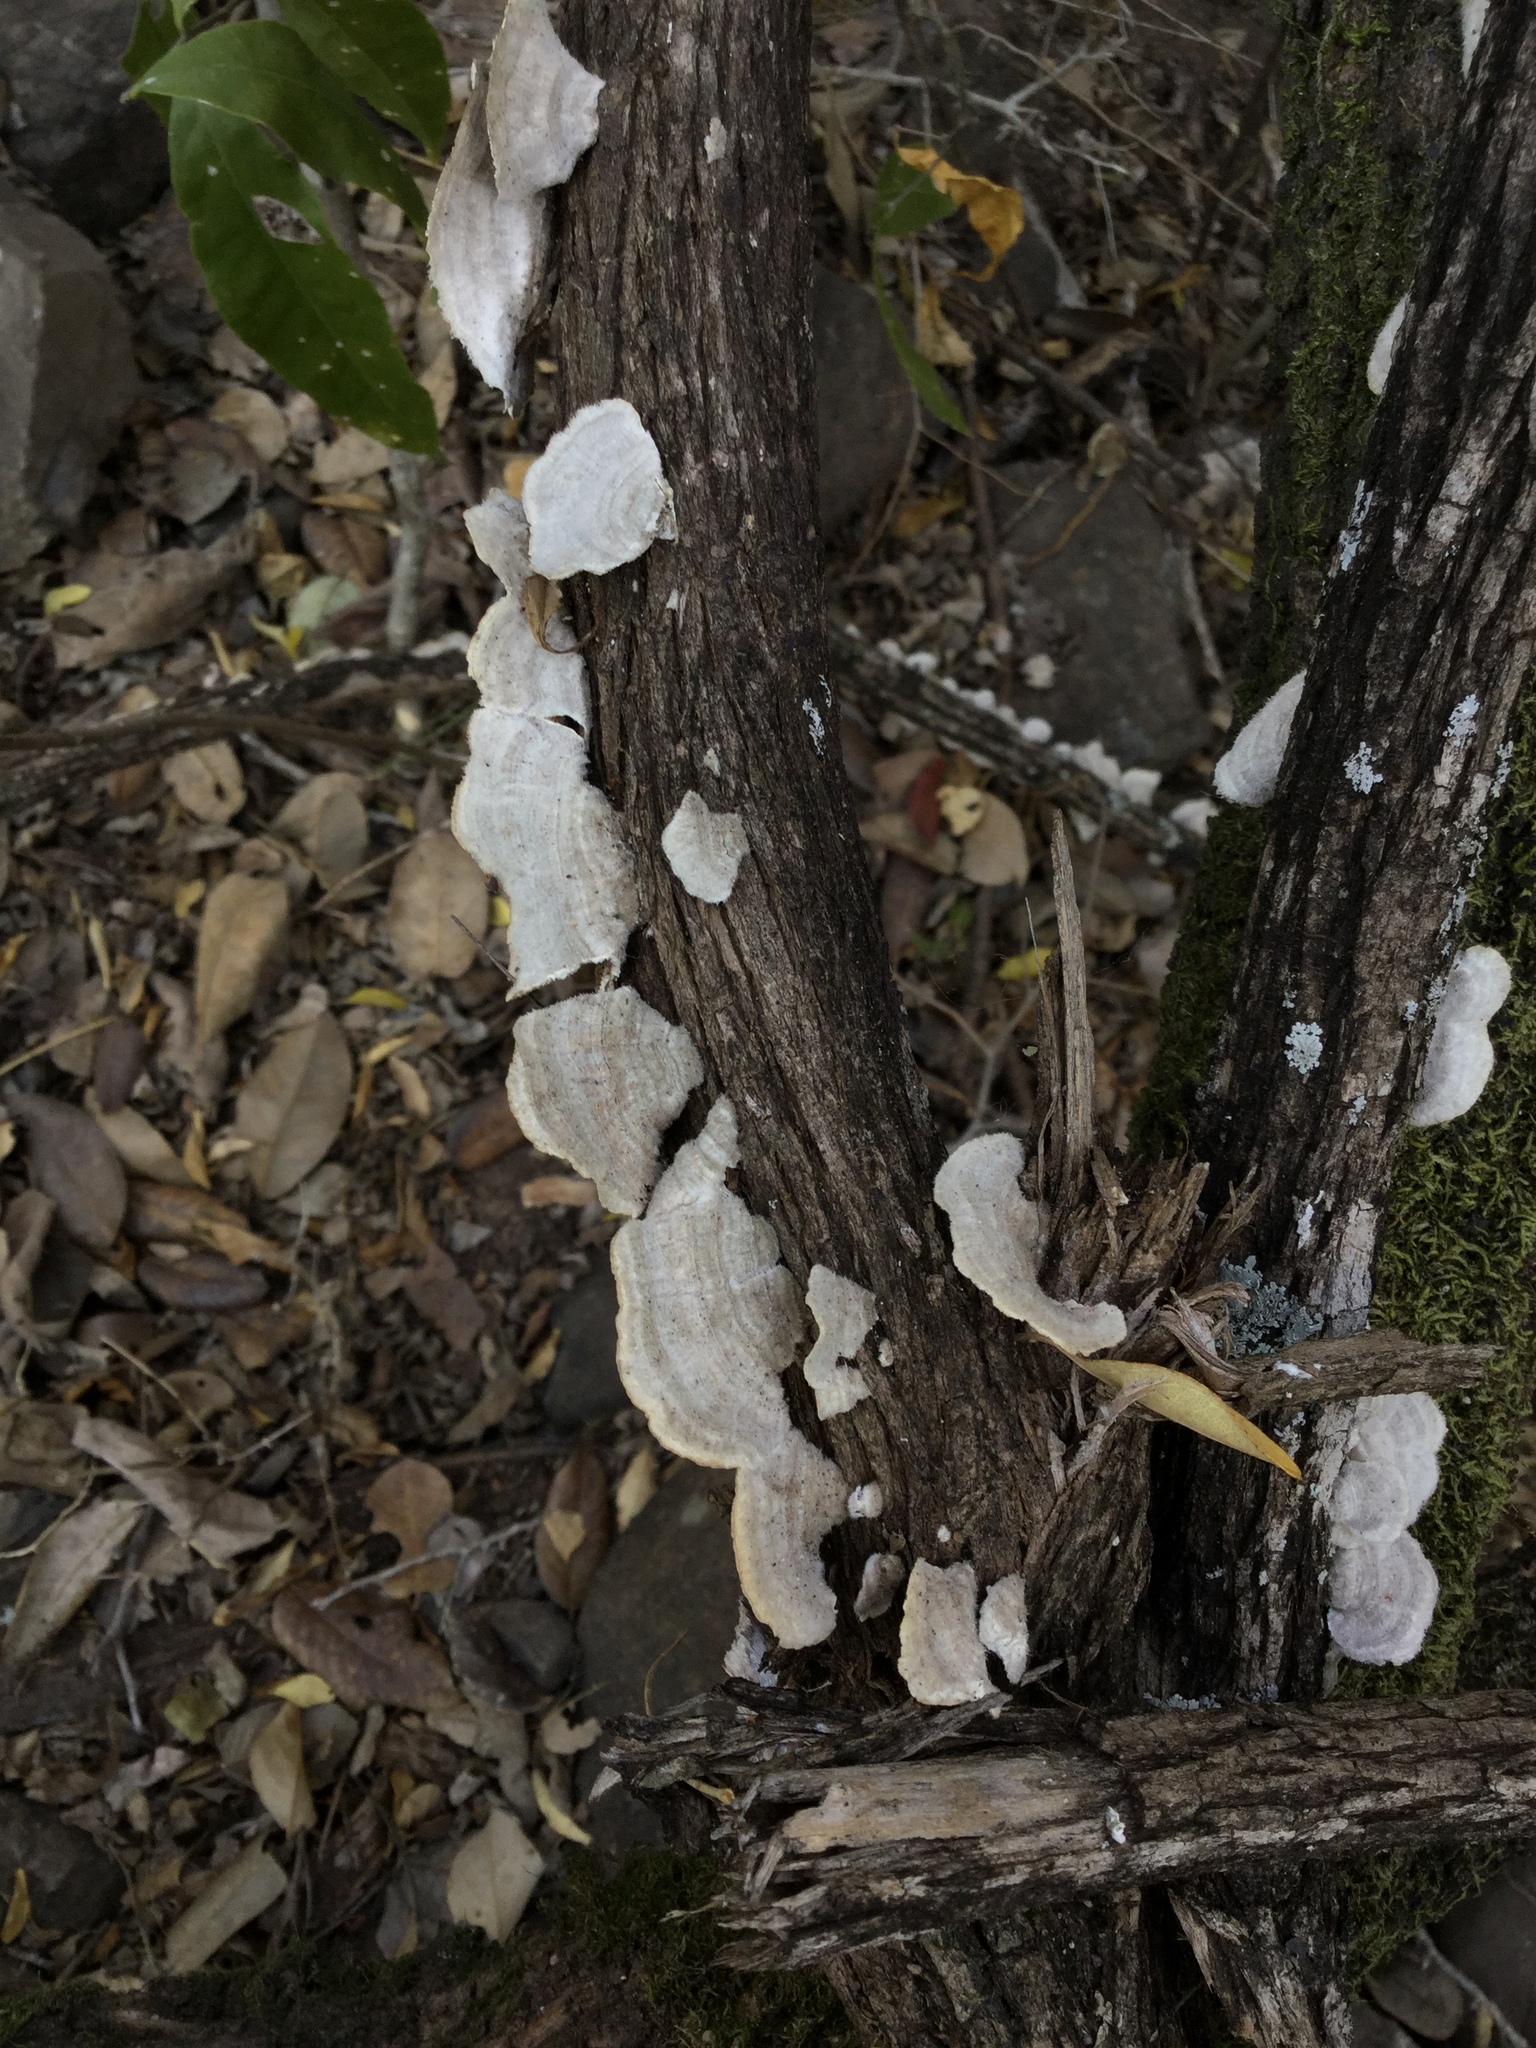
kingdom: Fungi
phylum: Basidiomycota
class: Agaricomycetes
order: Polyporales
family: Polyporaceae
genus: Trametes
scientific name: Trametes villosa
